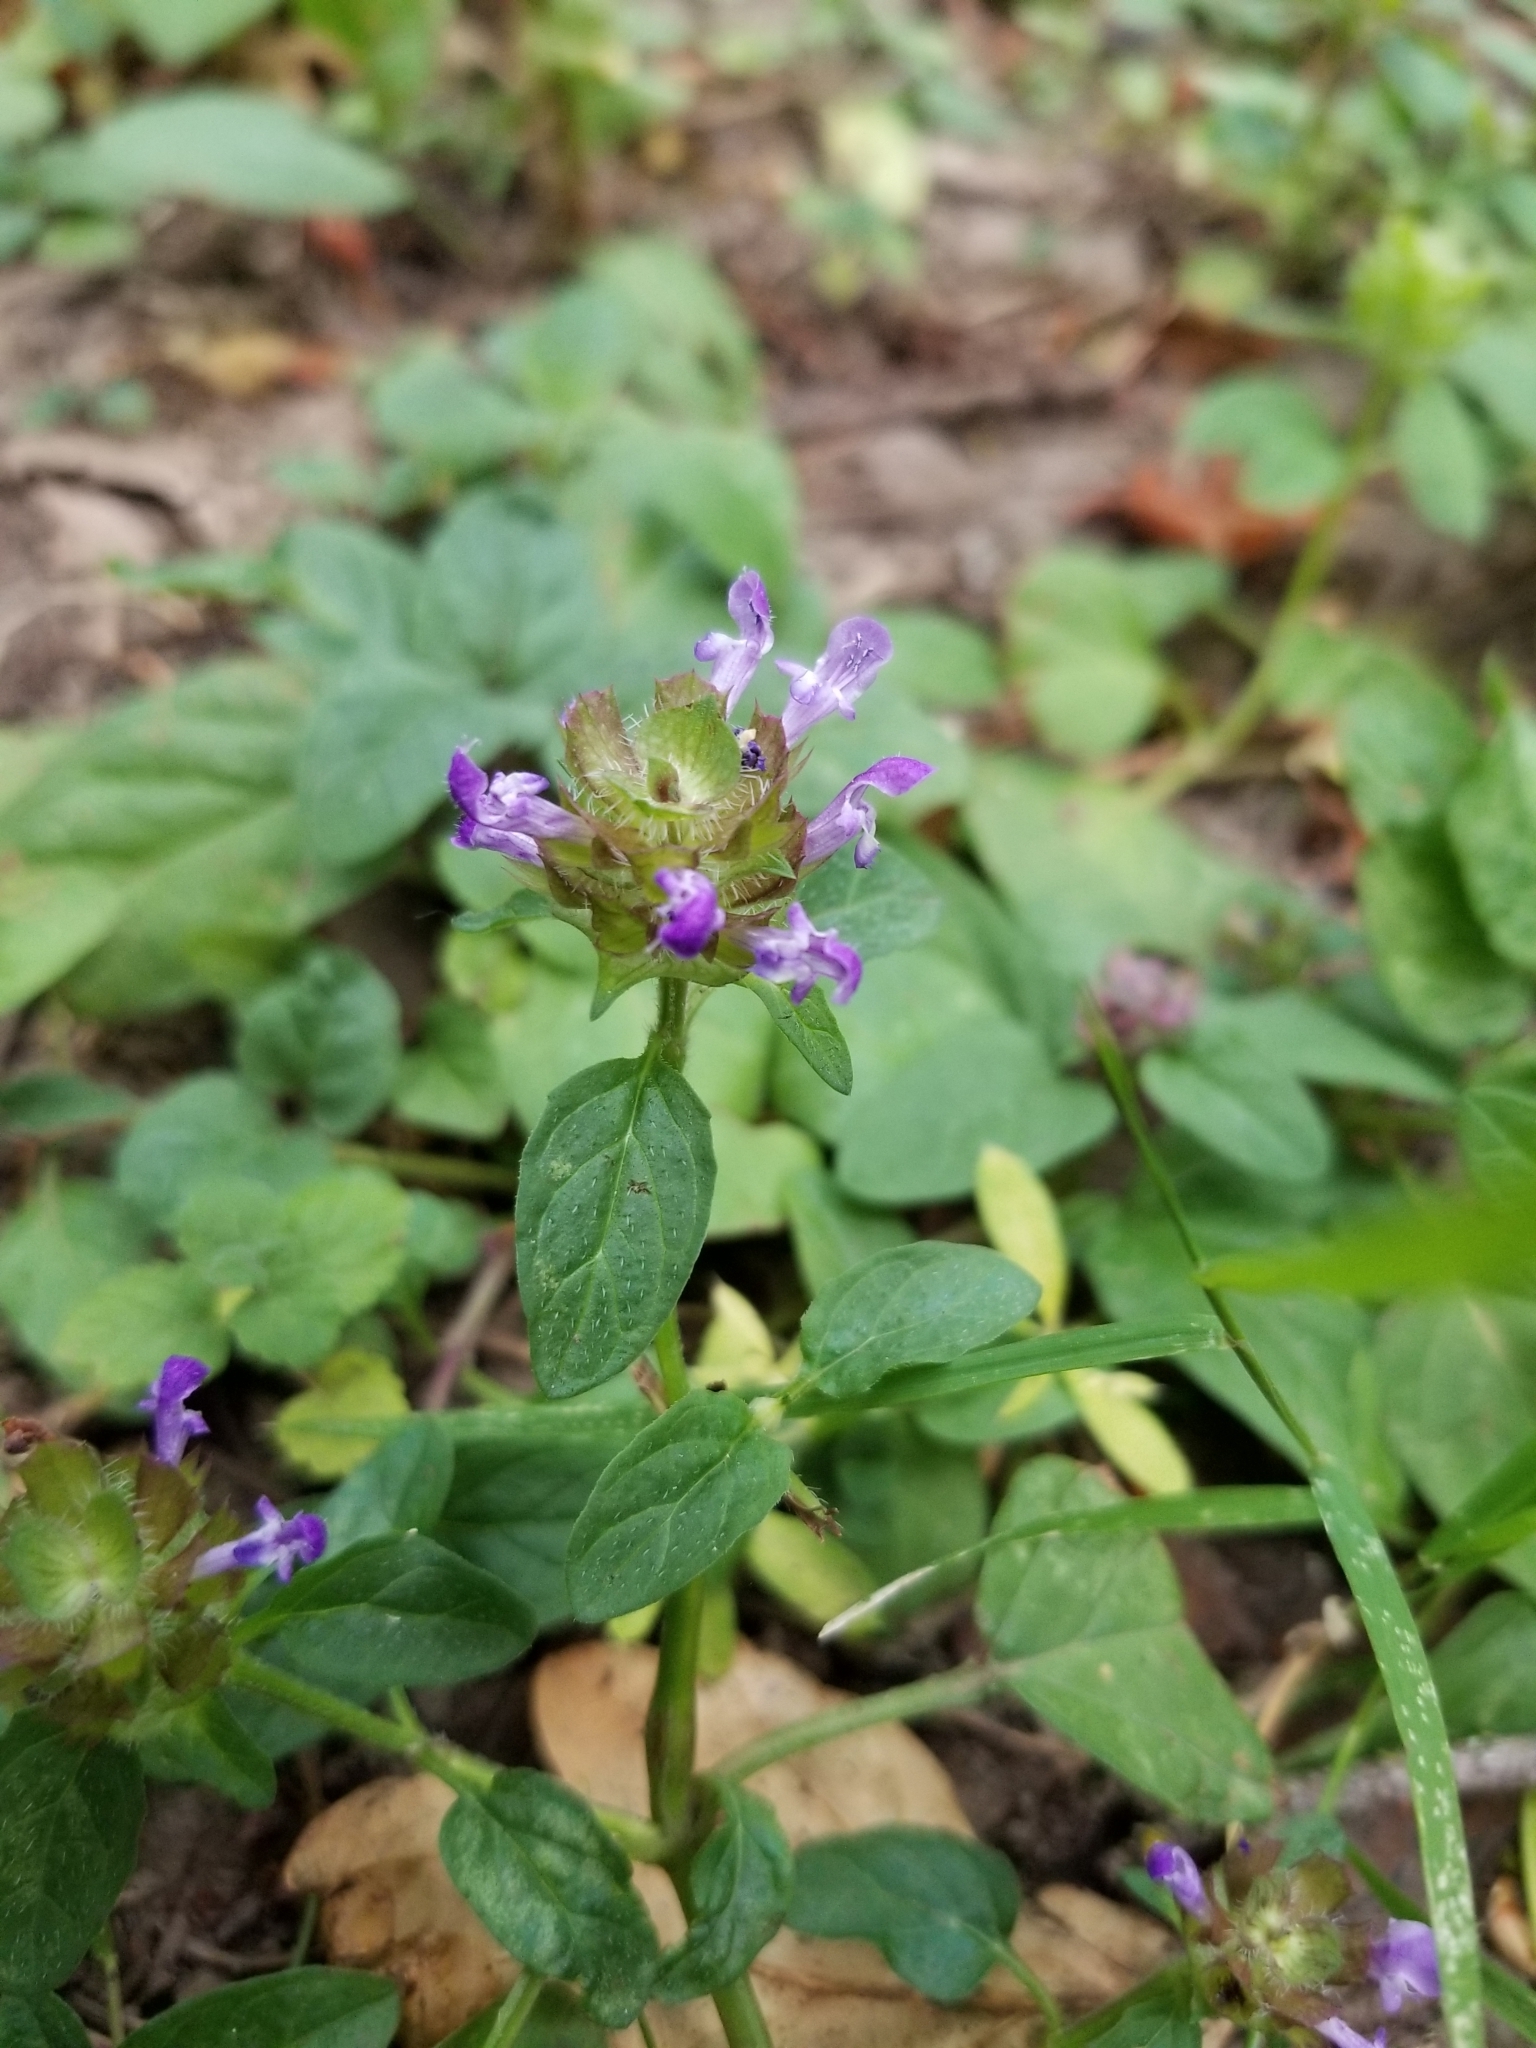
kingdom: Plantae
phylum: Tracheophyta
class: Magnoliopsida
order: Lamiales
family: Lamiaceae
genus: Prunella
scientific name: Prunella vulgaris
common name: Heal-all
